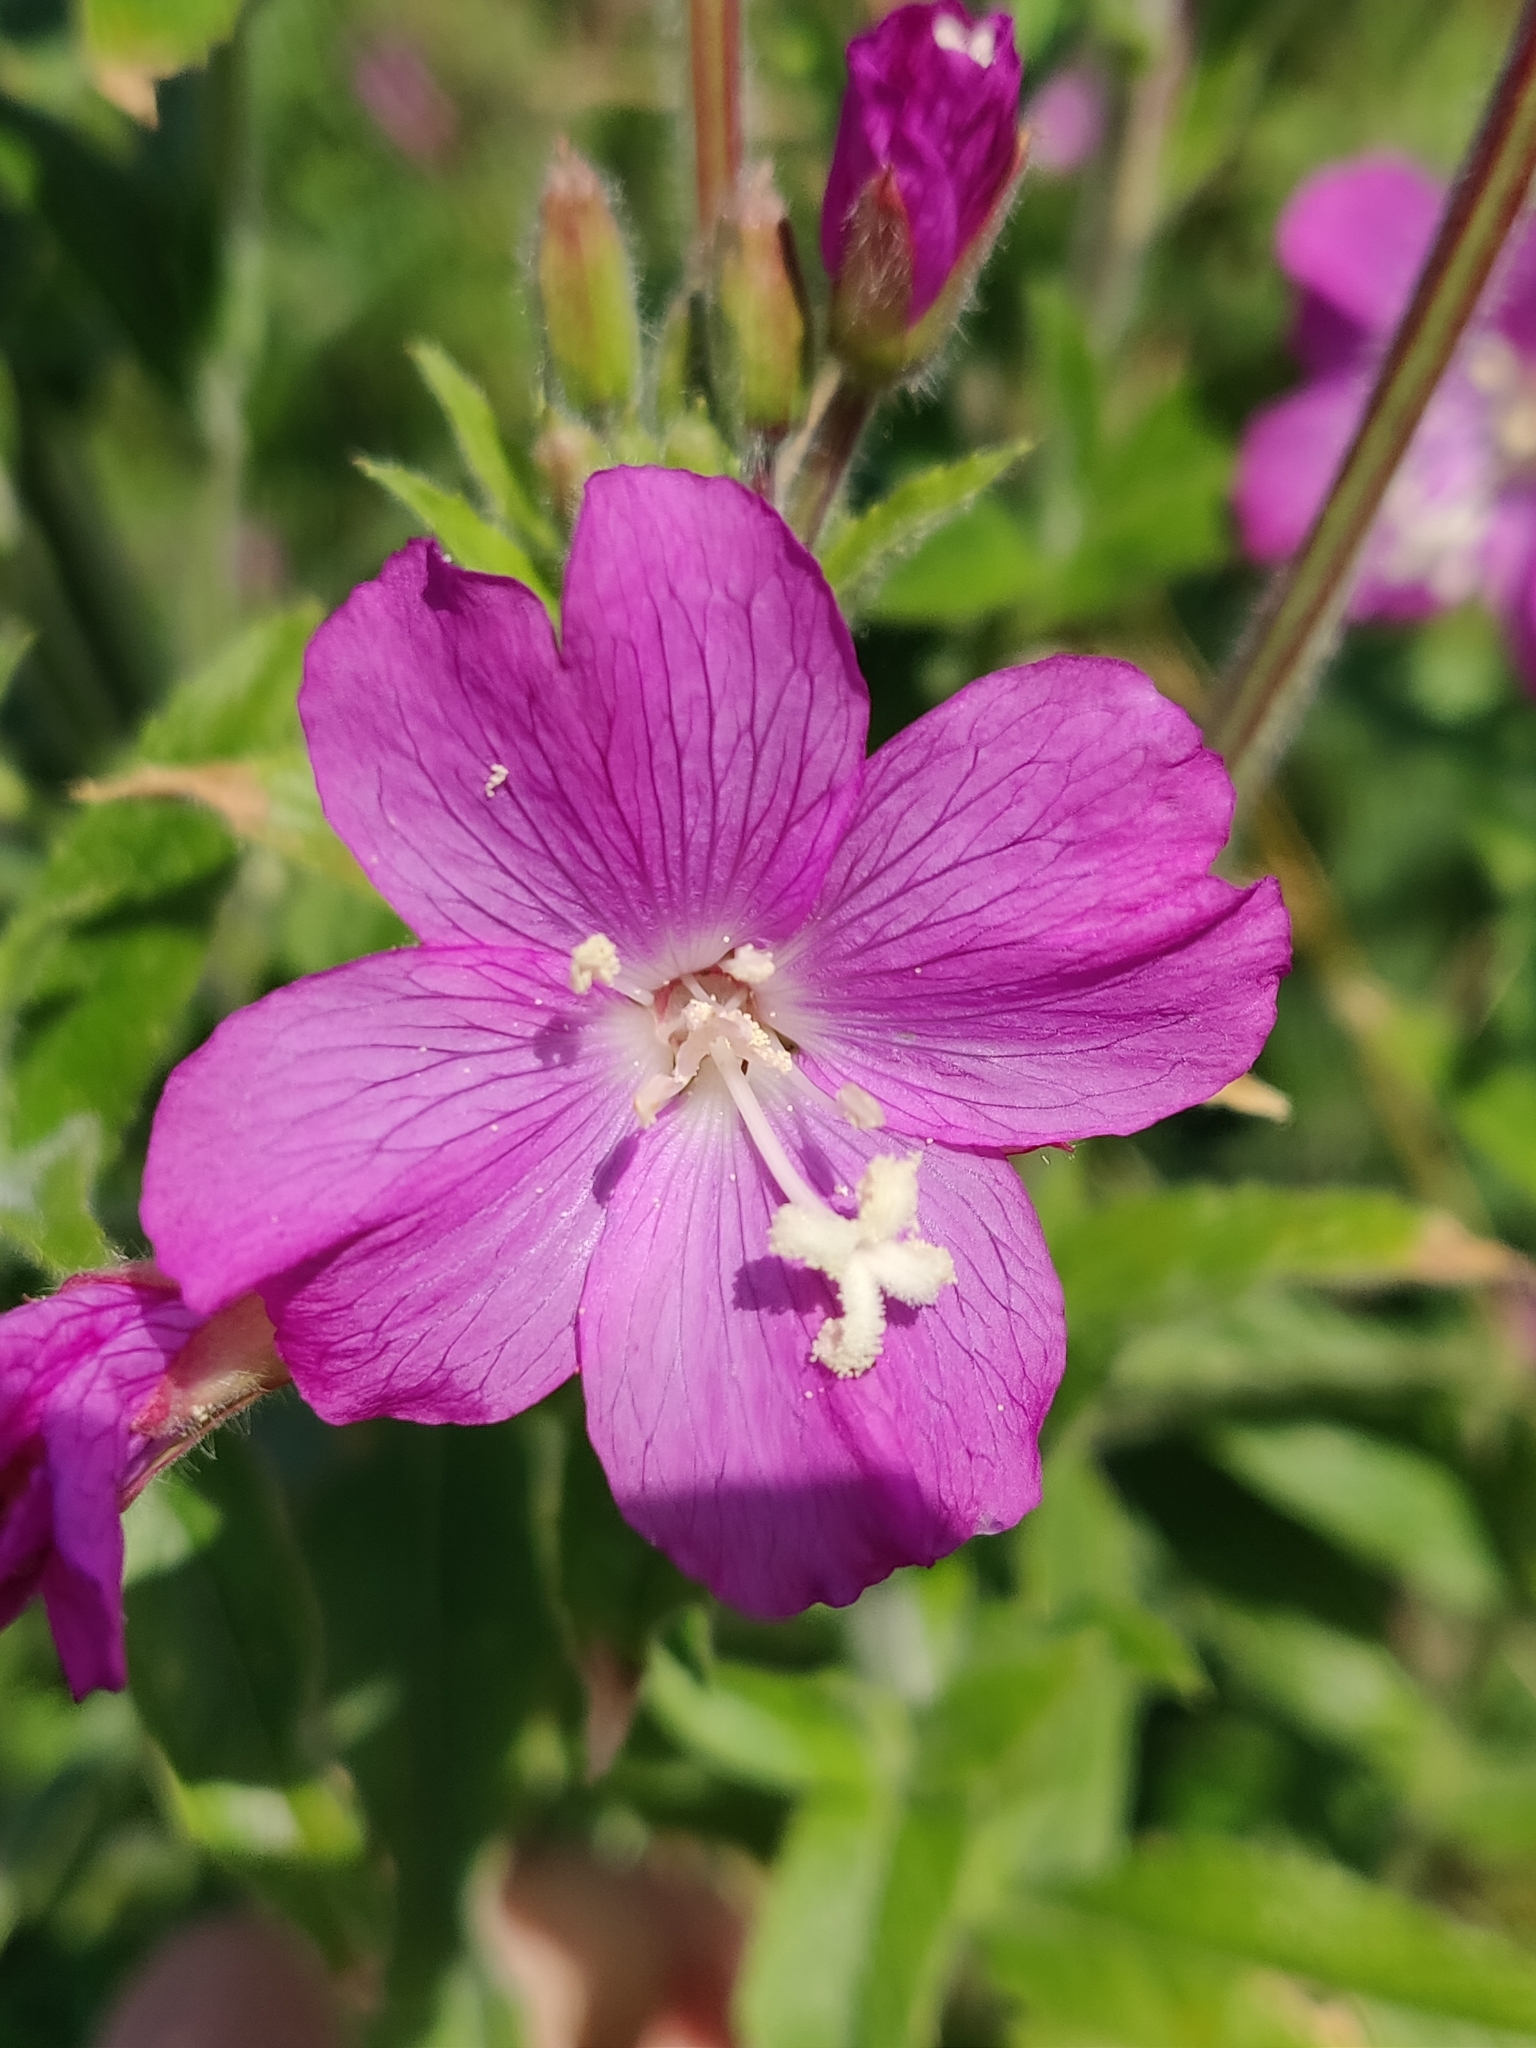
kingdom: Plantae
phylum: Tracheophyta
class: Magnoliopsida
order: Myrtales
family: Onagraceae
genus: Epilobium
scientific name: Epilobium hirsutum
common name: Great willowherb
